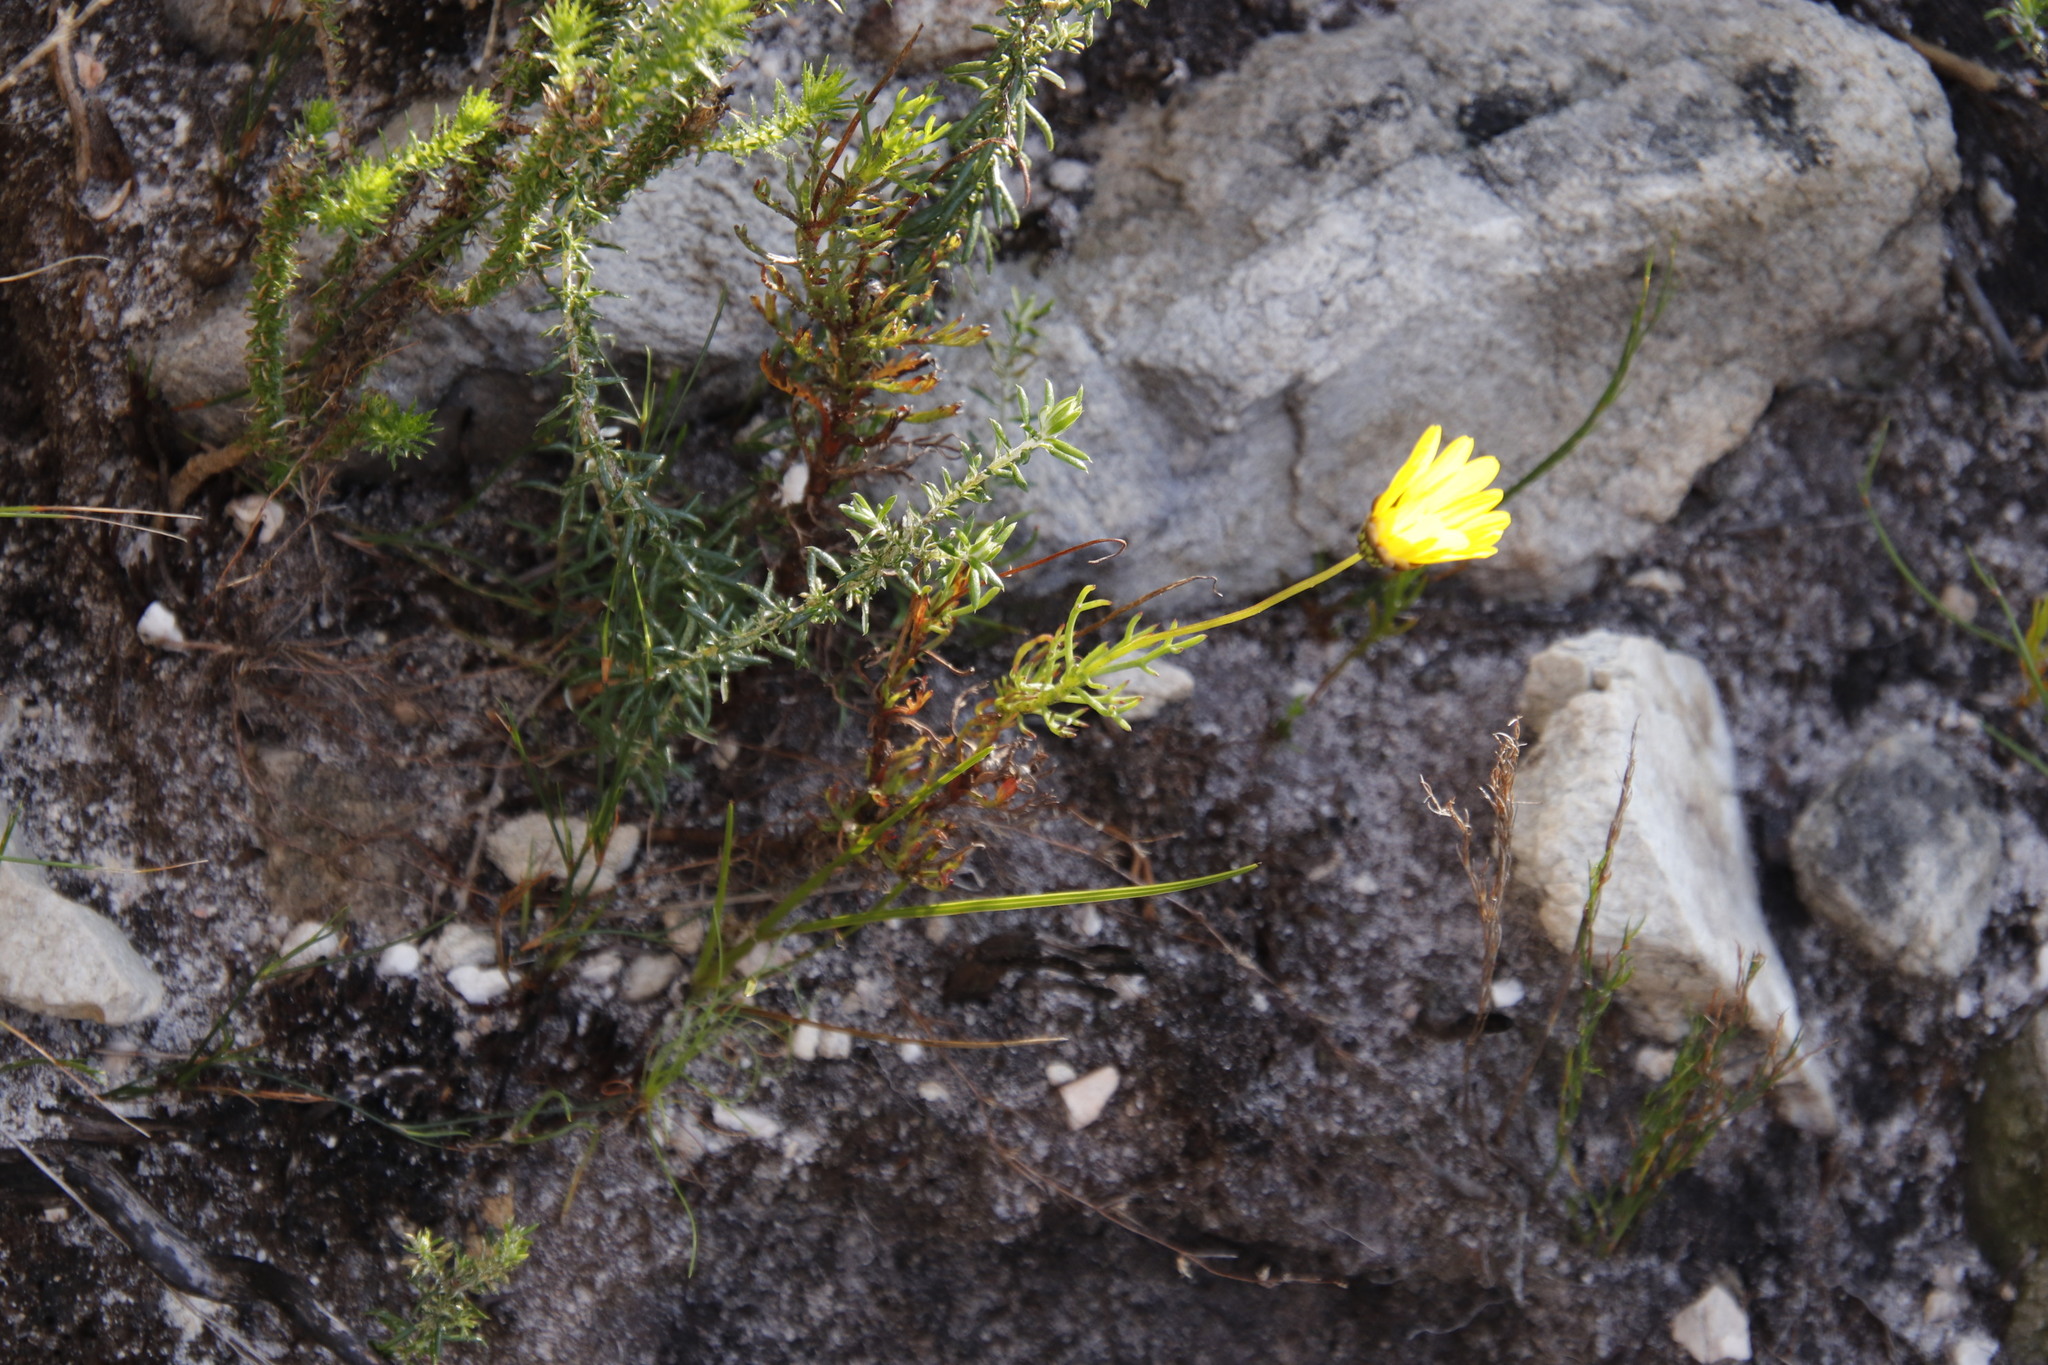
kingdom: Plantae
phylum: Tracheophyta
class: Magnoliopsida
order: Asterales
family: Asteraceae
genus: Ursinia
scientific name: Ursinia paleacea
